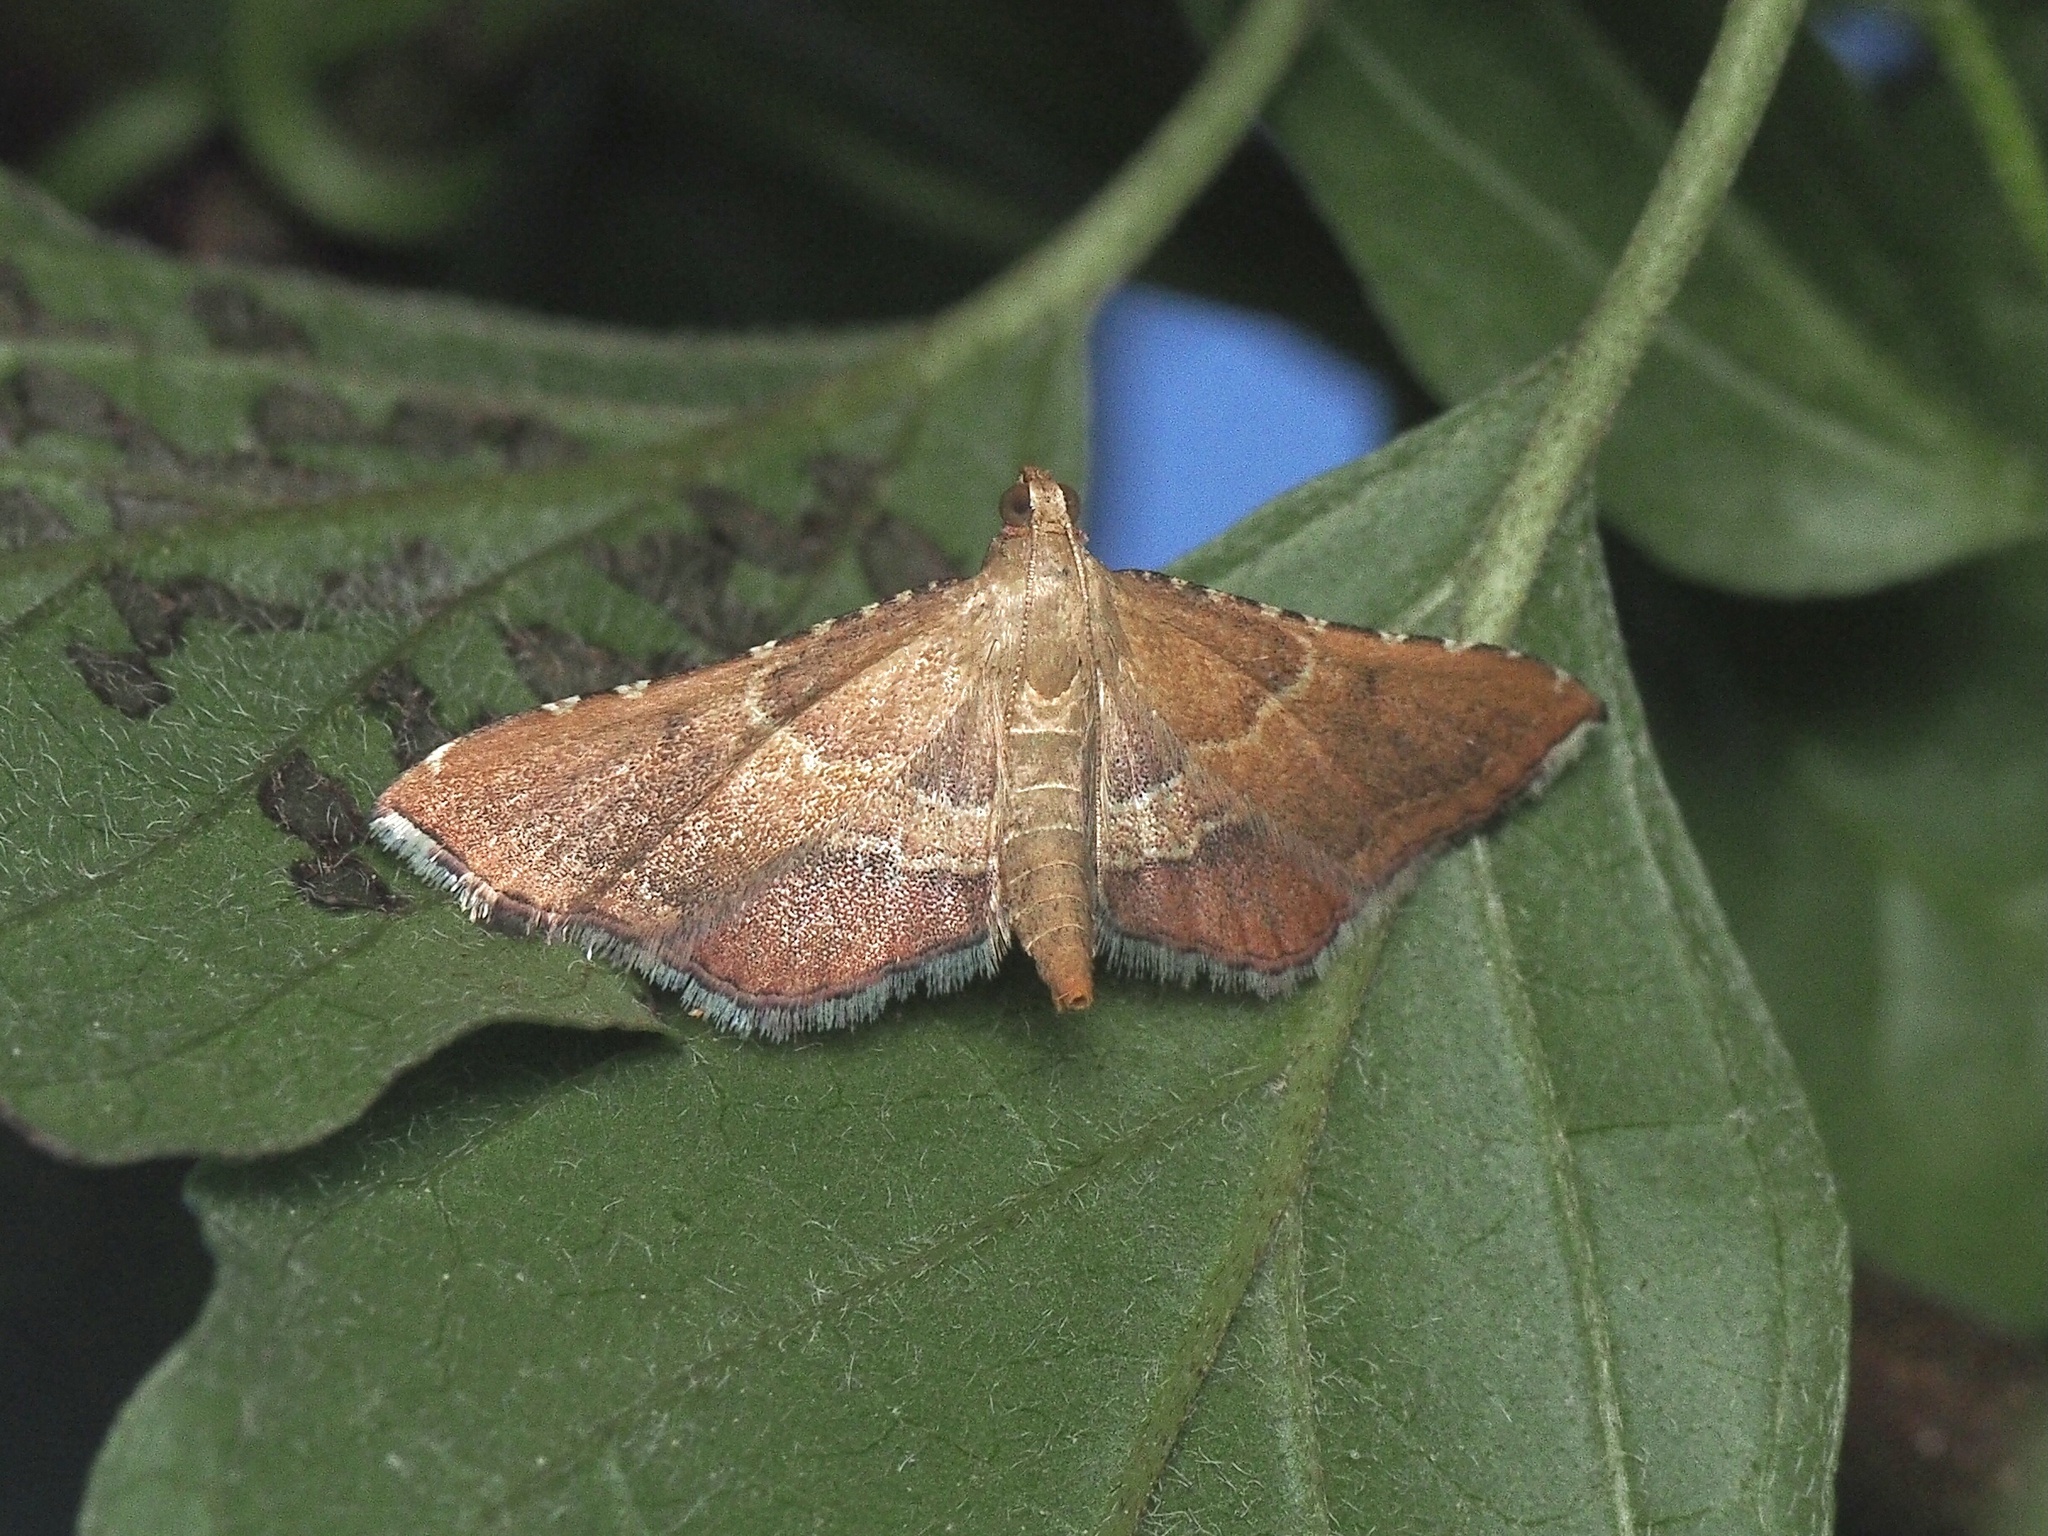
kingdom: Animalia
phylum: Arthropoda
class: Insecta
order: Lepidoptera
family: Pyralidae
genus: Endotricha
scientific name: Endotricha flammealis
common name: Rosy tabby
